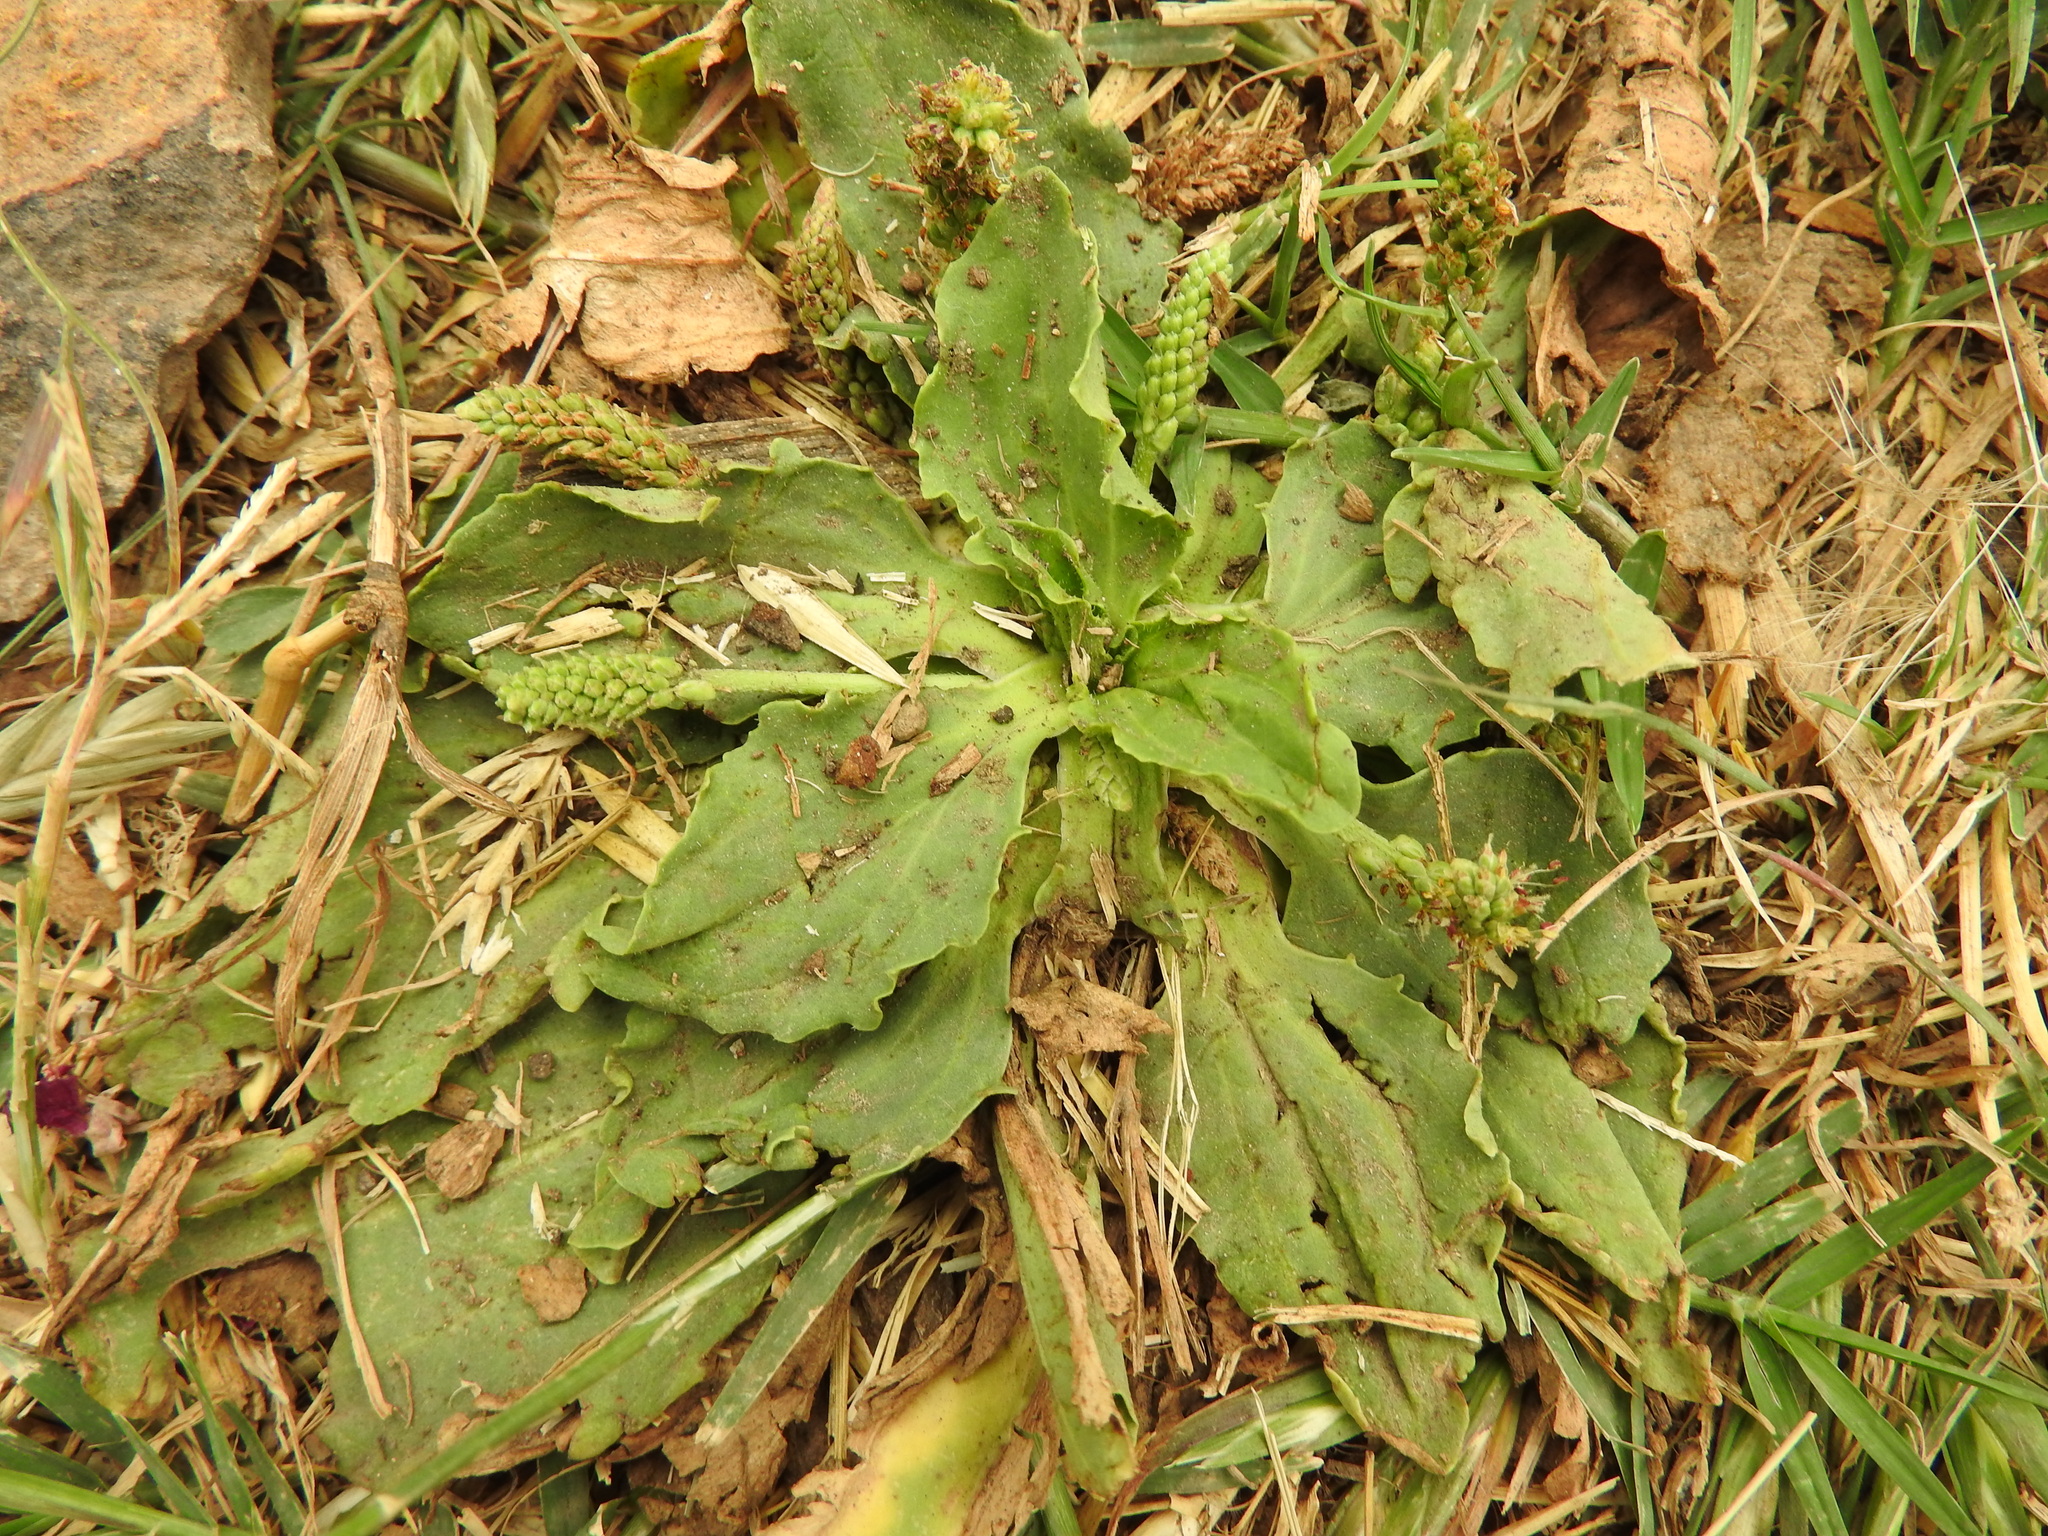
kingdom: Plantae
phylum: Tracheophyta
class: Magnoliopsida
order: Lamiales
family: Plantaginaceae
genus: Plantago
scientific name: Plantago major
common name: Common plantain
